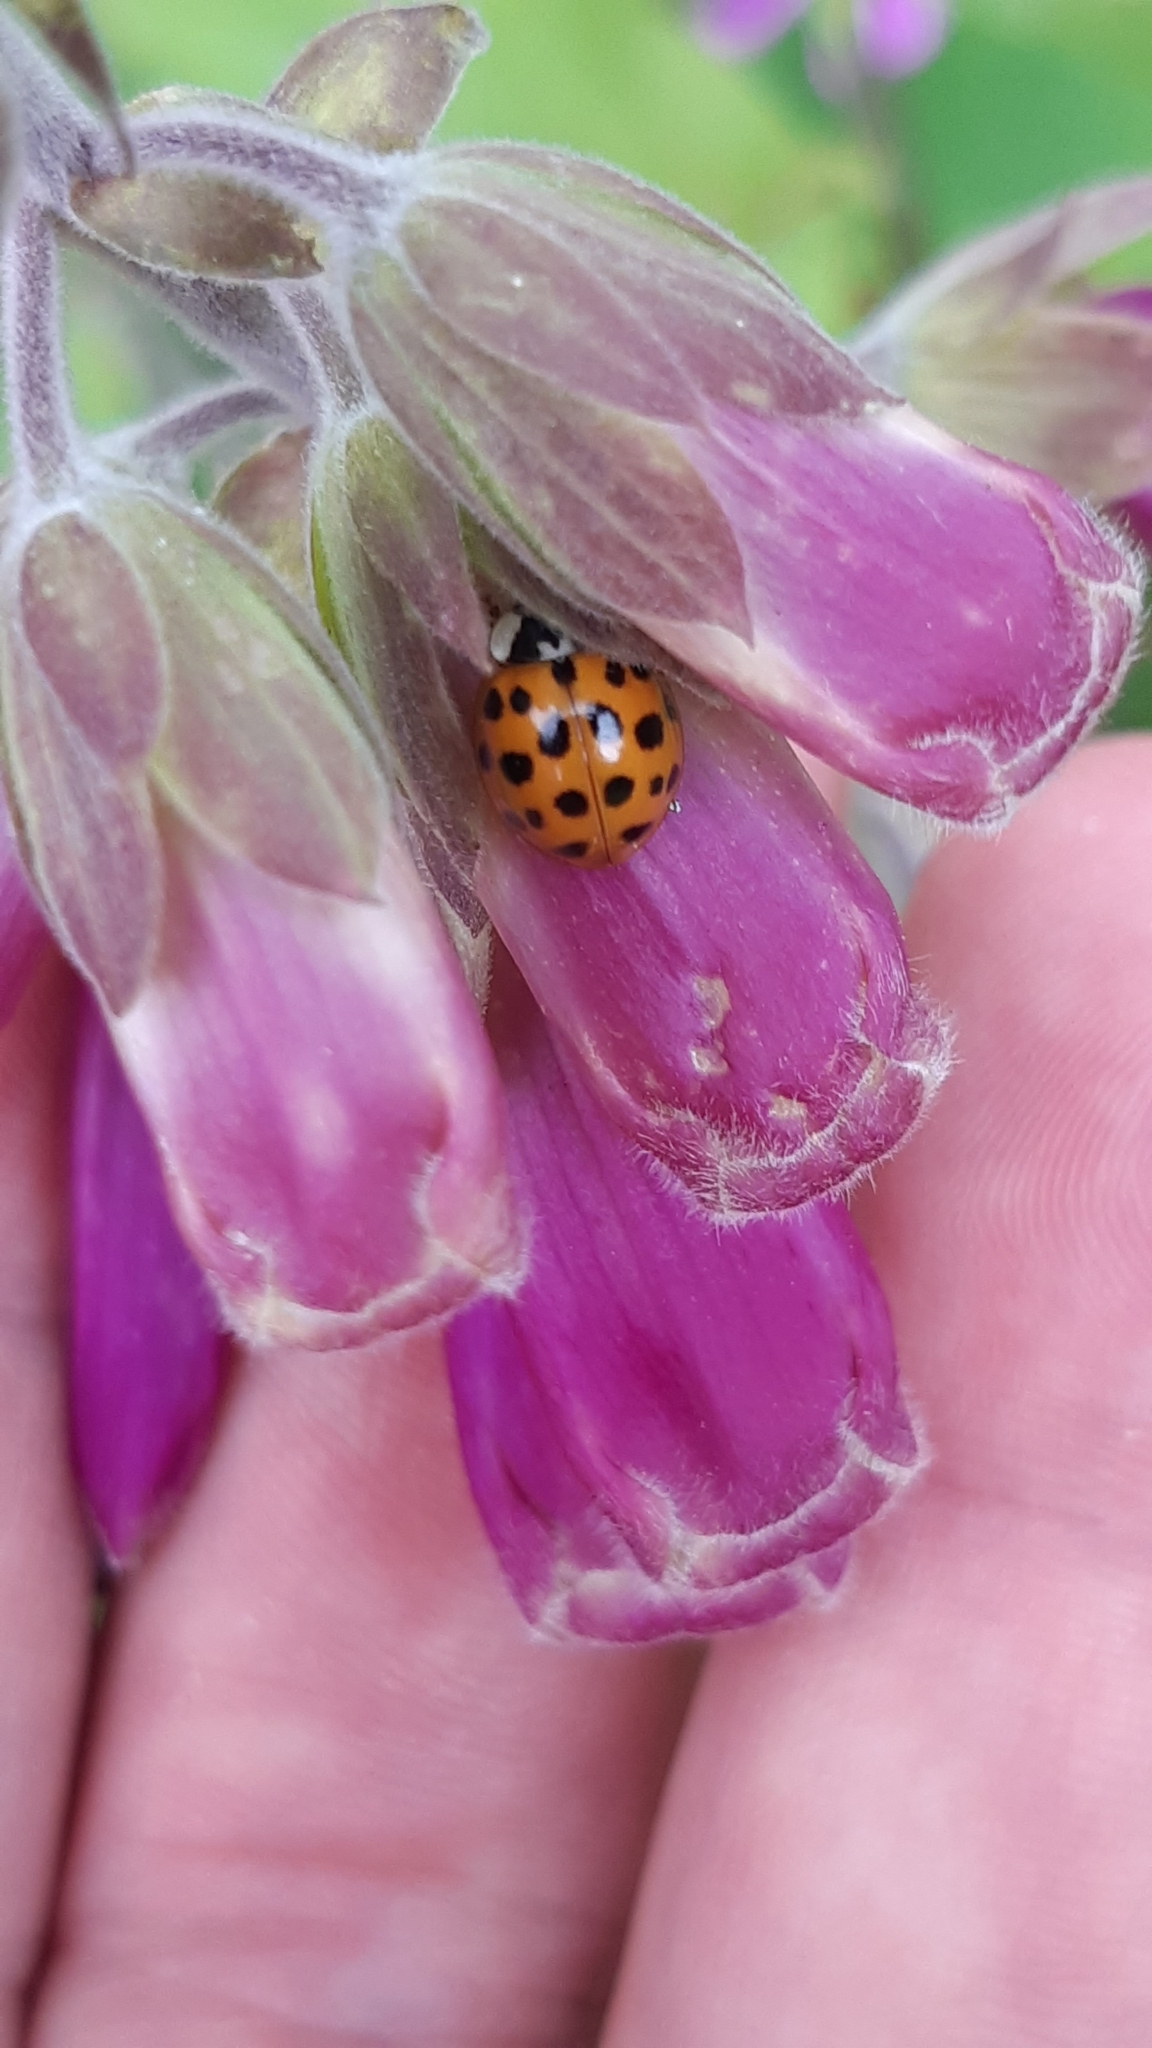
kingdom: Animalia
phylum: Arthropoda
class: Insecta
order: Coleoptera
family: Coccinellidae
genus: Harmonia
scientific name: Harmonia axyridis
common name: Harlequin ladybird
